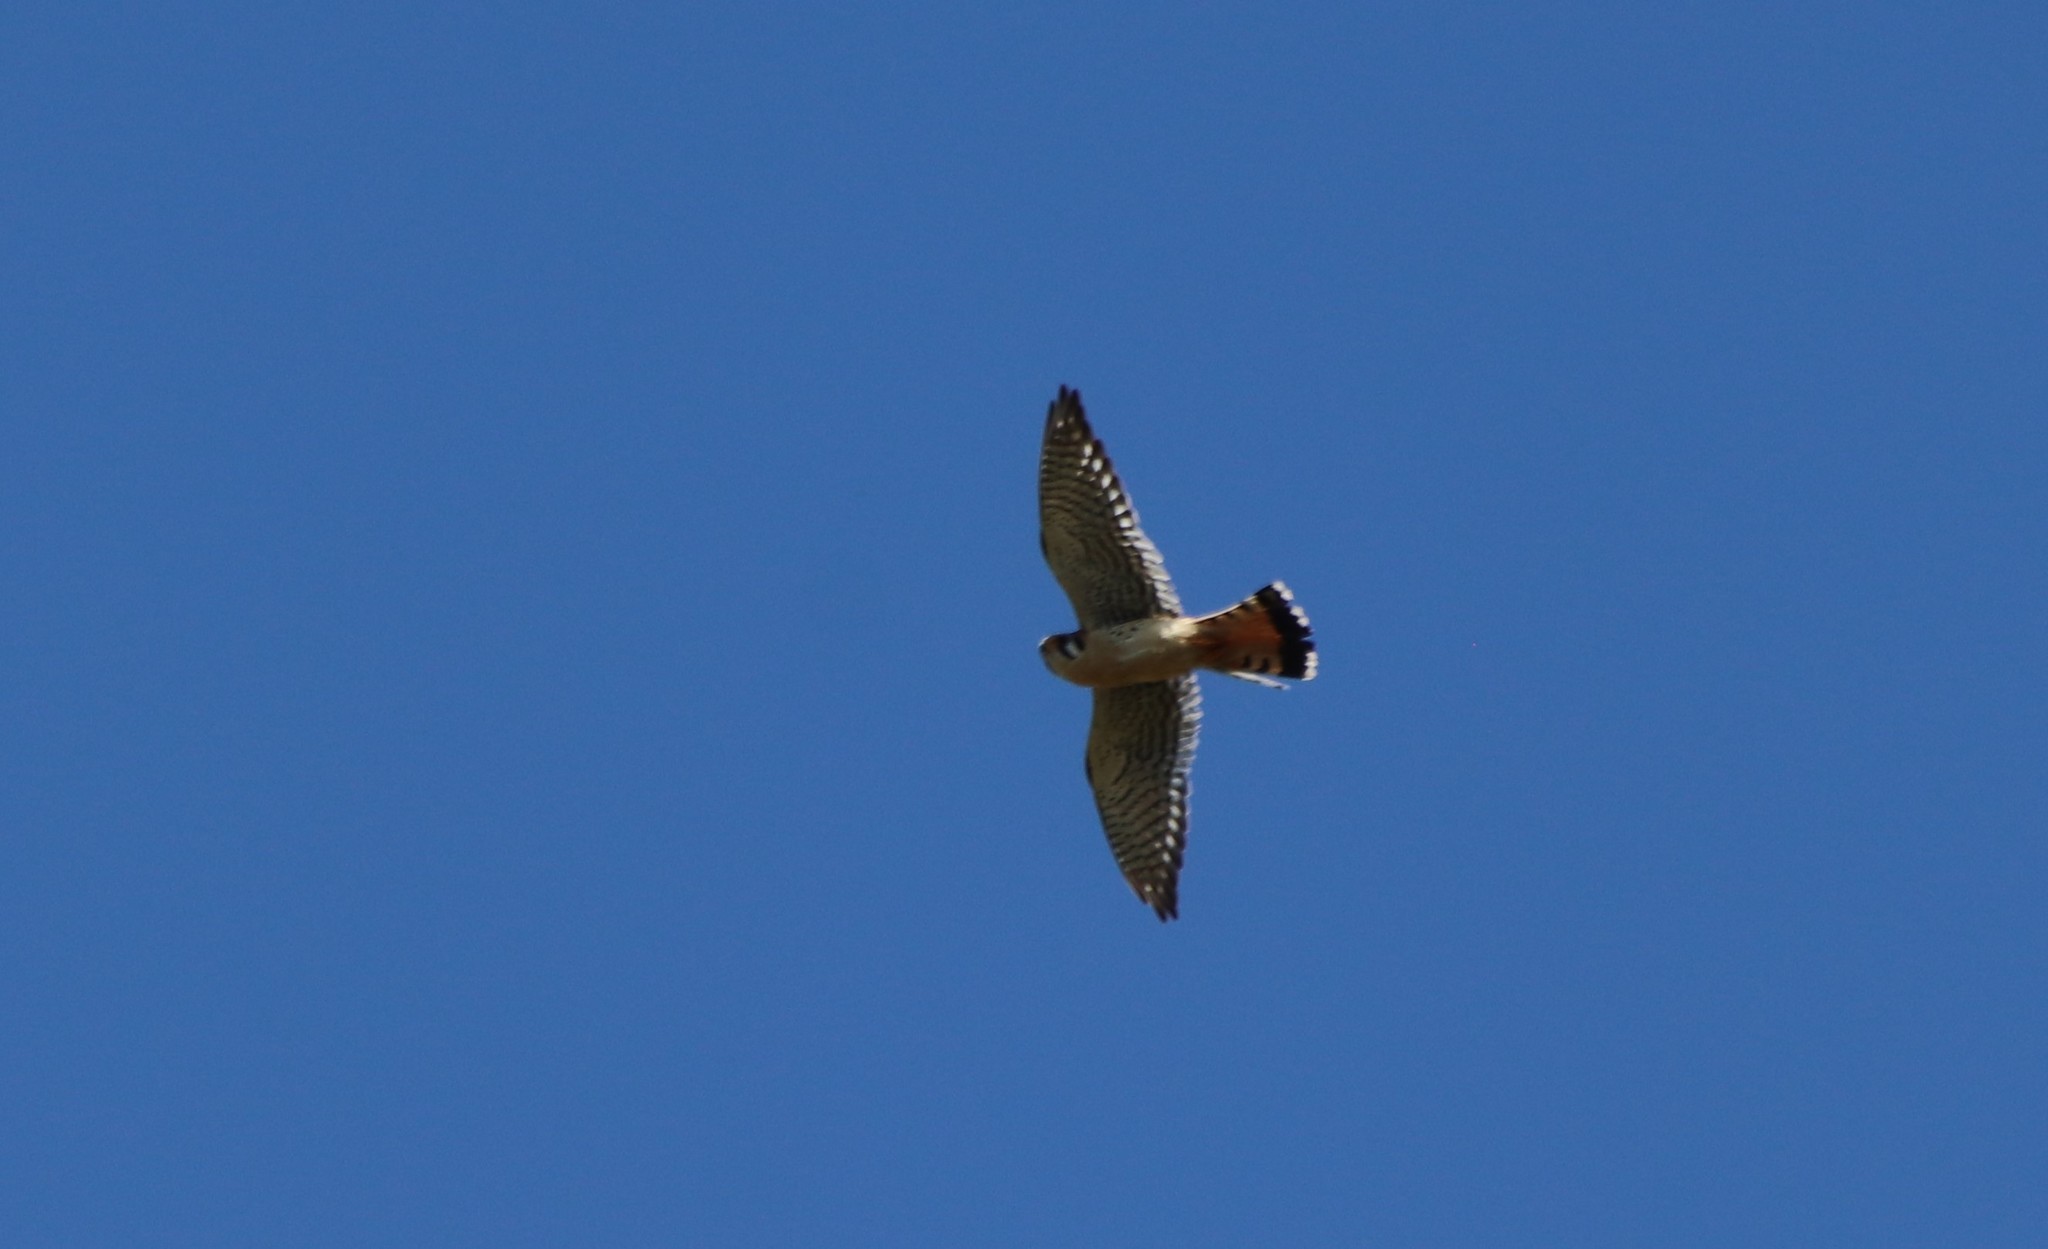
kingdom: Animalia
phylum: Chordata
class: Aves
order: Falconiformes
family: Falconidae
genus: Falco
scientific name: Falco sparverius
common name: American kestrel
